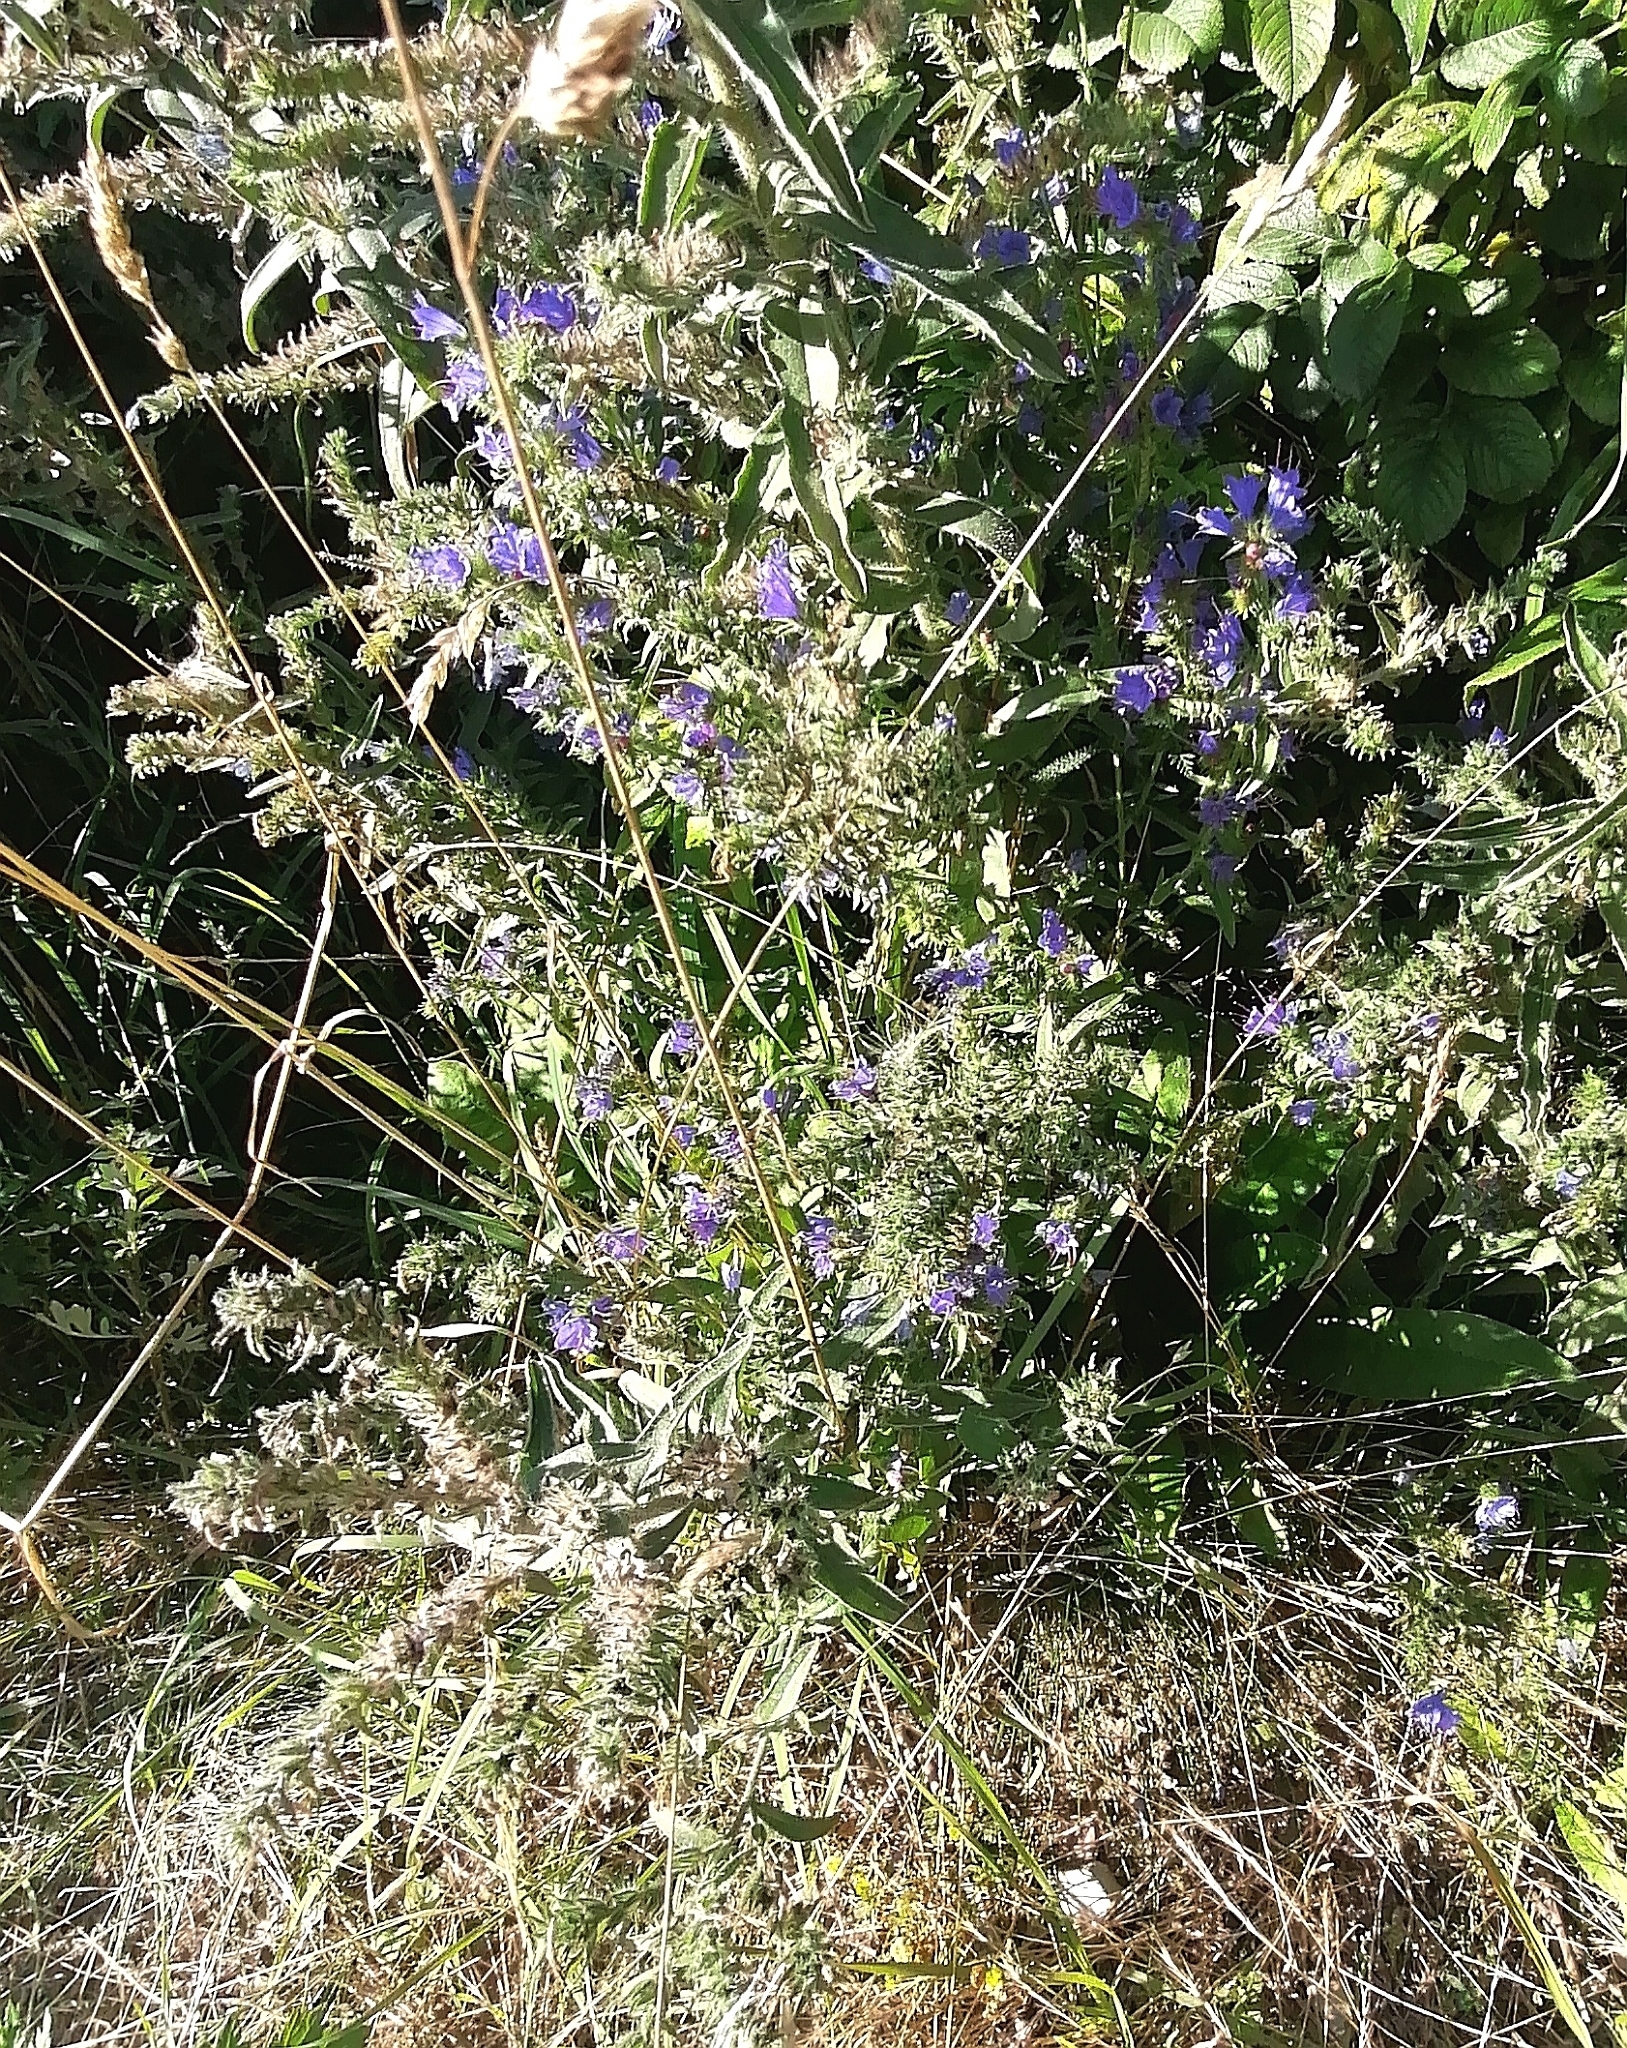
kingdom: Plantae
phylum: Tracheophyta
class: Magnoliopsida
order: Boraginales
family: Boraginaceae
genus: Echium
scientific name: Echium vulgare
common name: Common viper's bugloss
